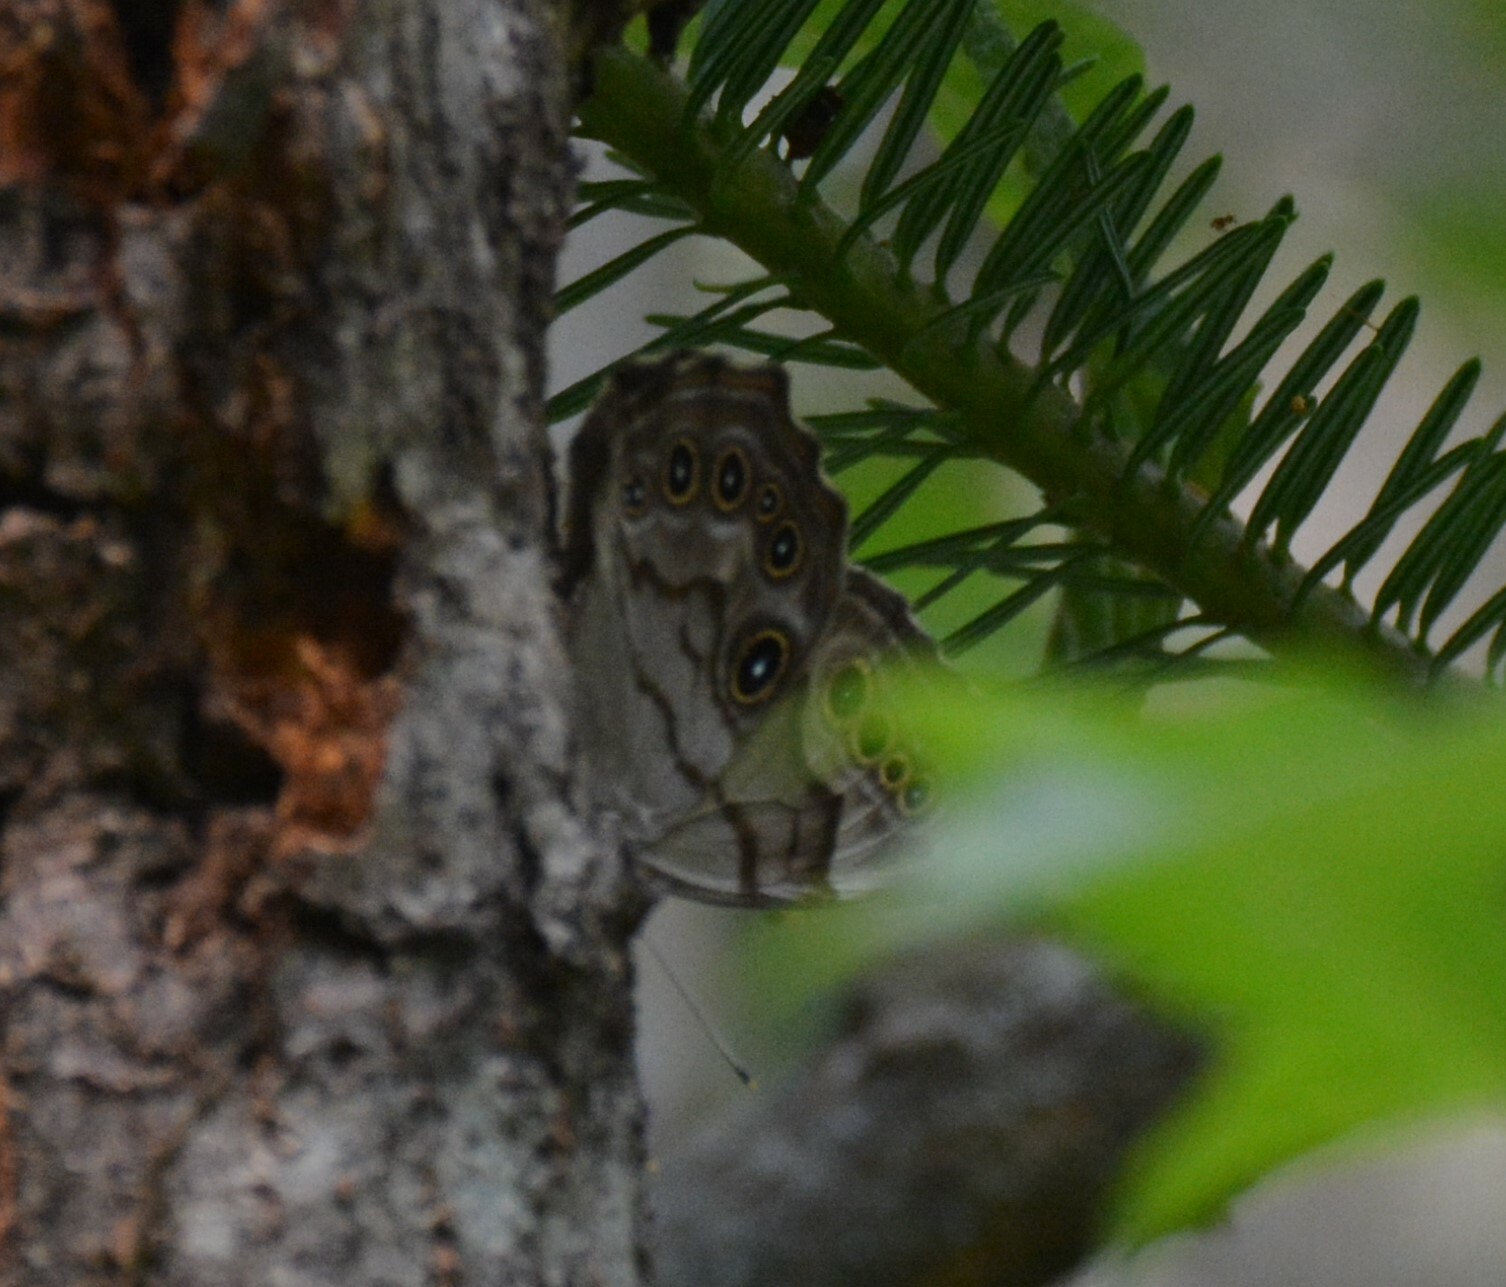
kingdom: Animalia
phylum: Arthropoda
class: Insecta
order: Lepidoptera
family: Nymphalidae
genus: Lethe
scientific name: Lethe anthedon
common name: Northern pearly-eye
